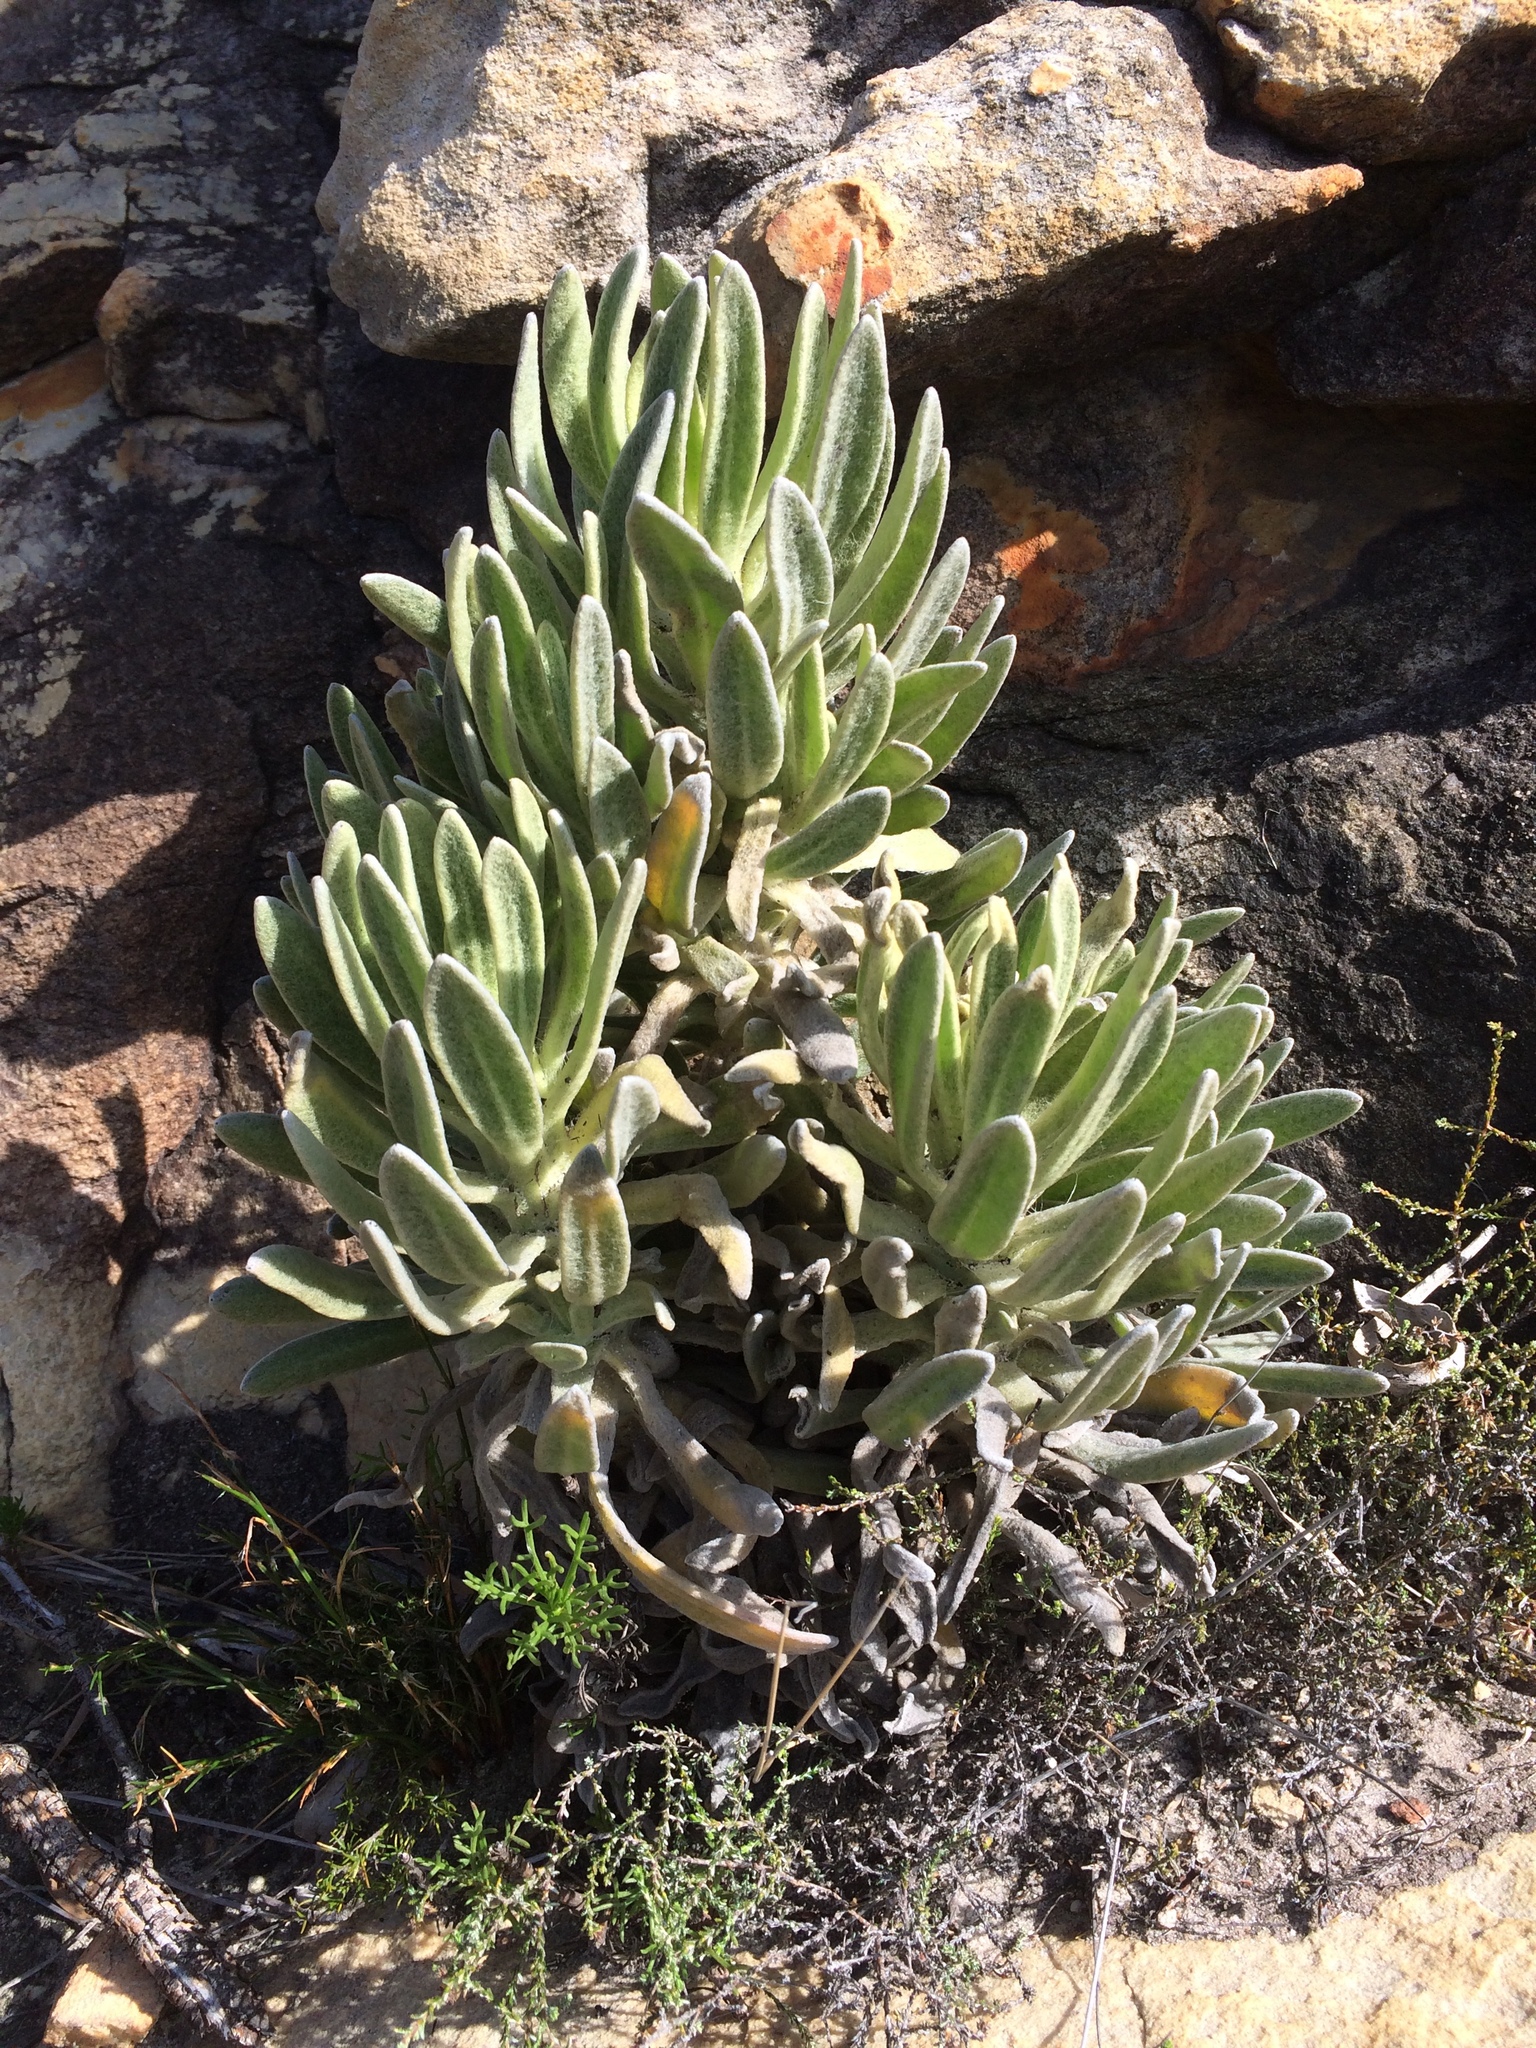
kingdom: Plantae
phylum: Tracheophyta
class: Magnoliopsida
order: Asterales
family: Asteraceae
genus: Syncarpha
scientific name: Syncarpha vestita
